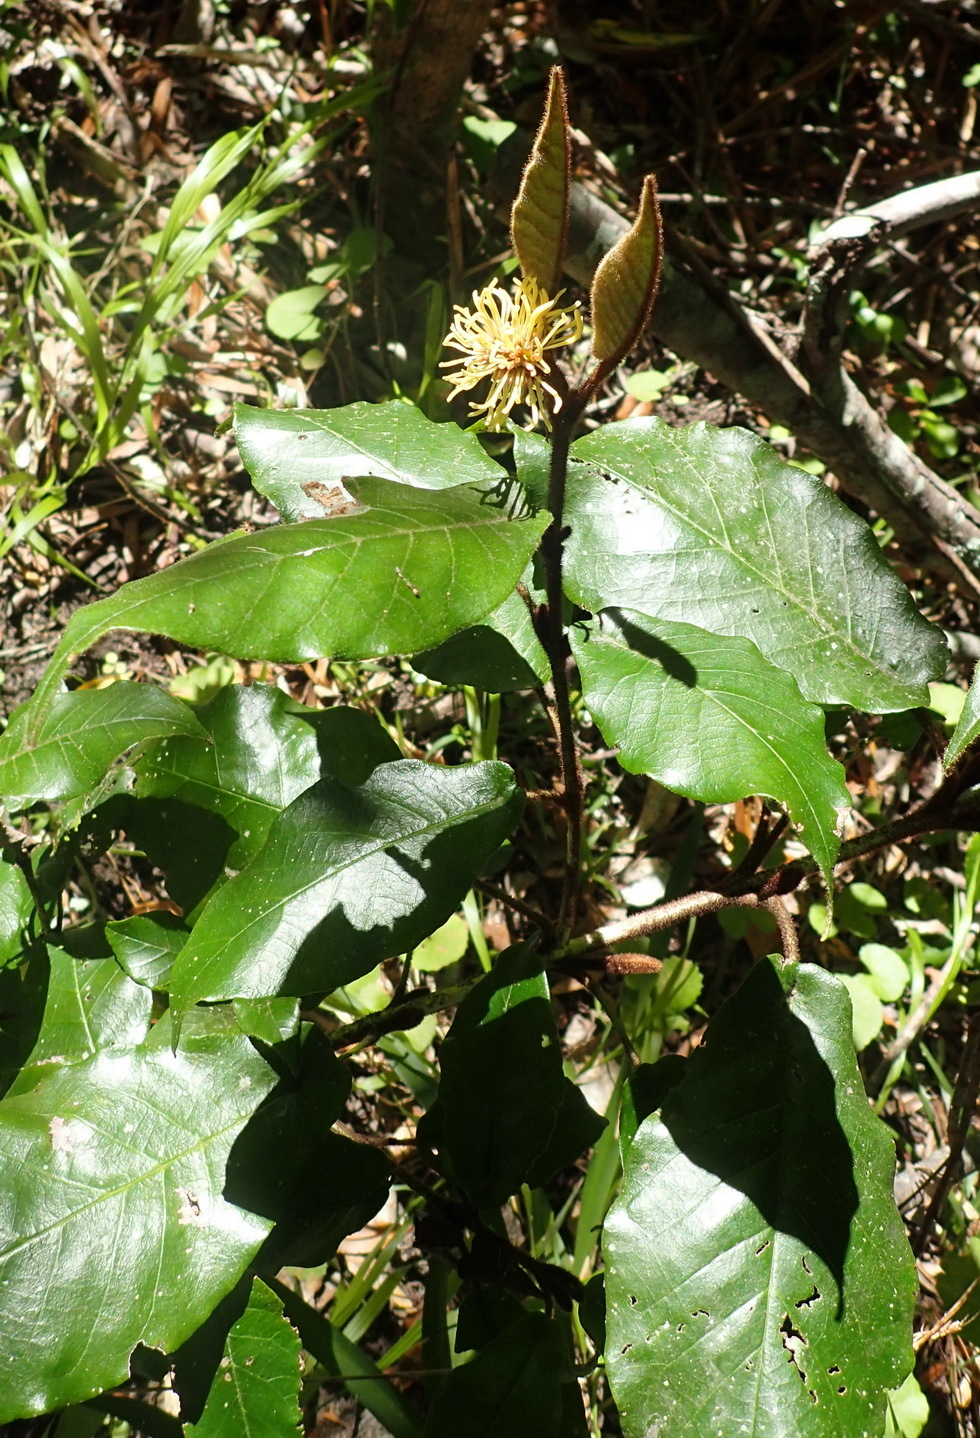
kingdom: Plantae
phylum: Tracheophyta
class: Magnoliopsida
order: Saxifragales
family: Hamamelidaceae
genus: Trichocladus
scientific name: Trichocladus crinitus
